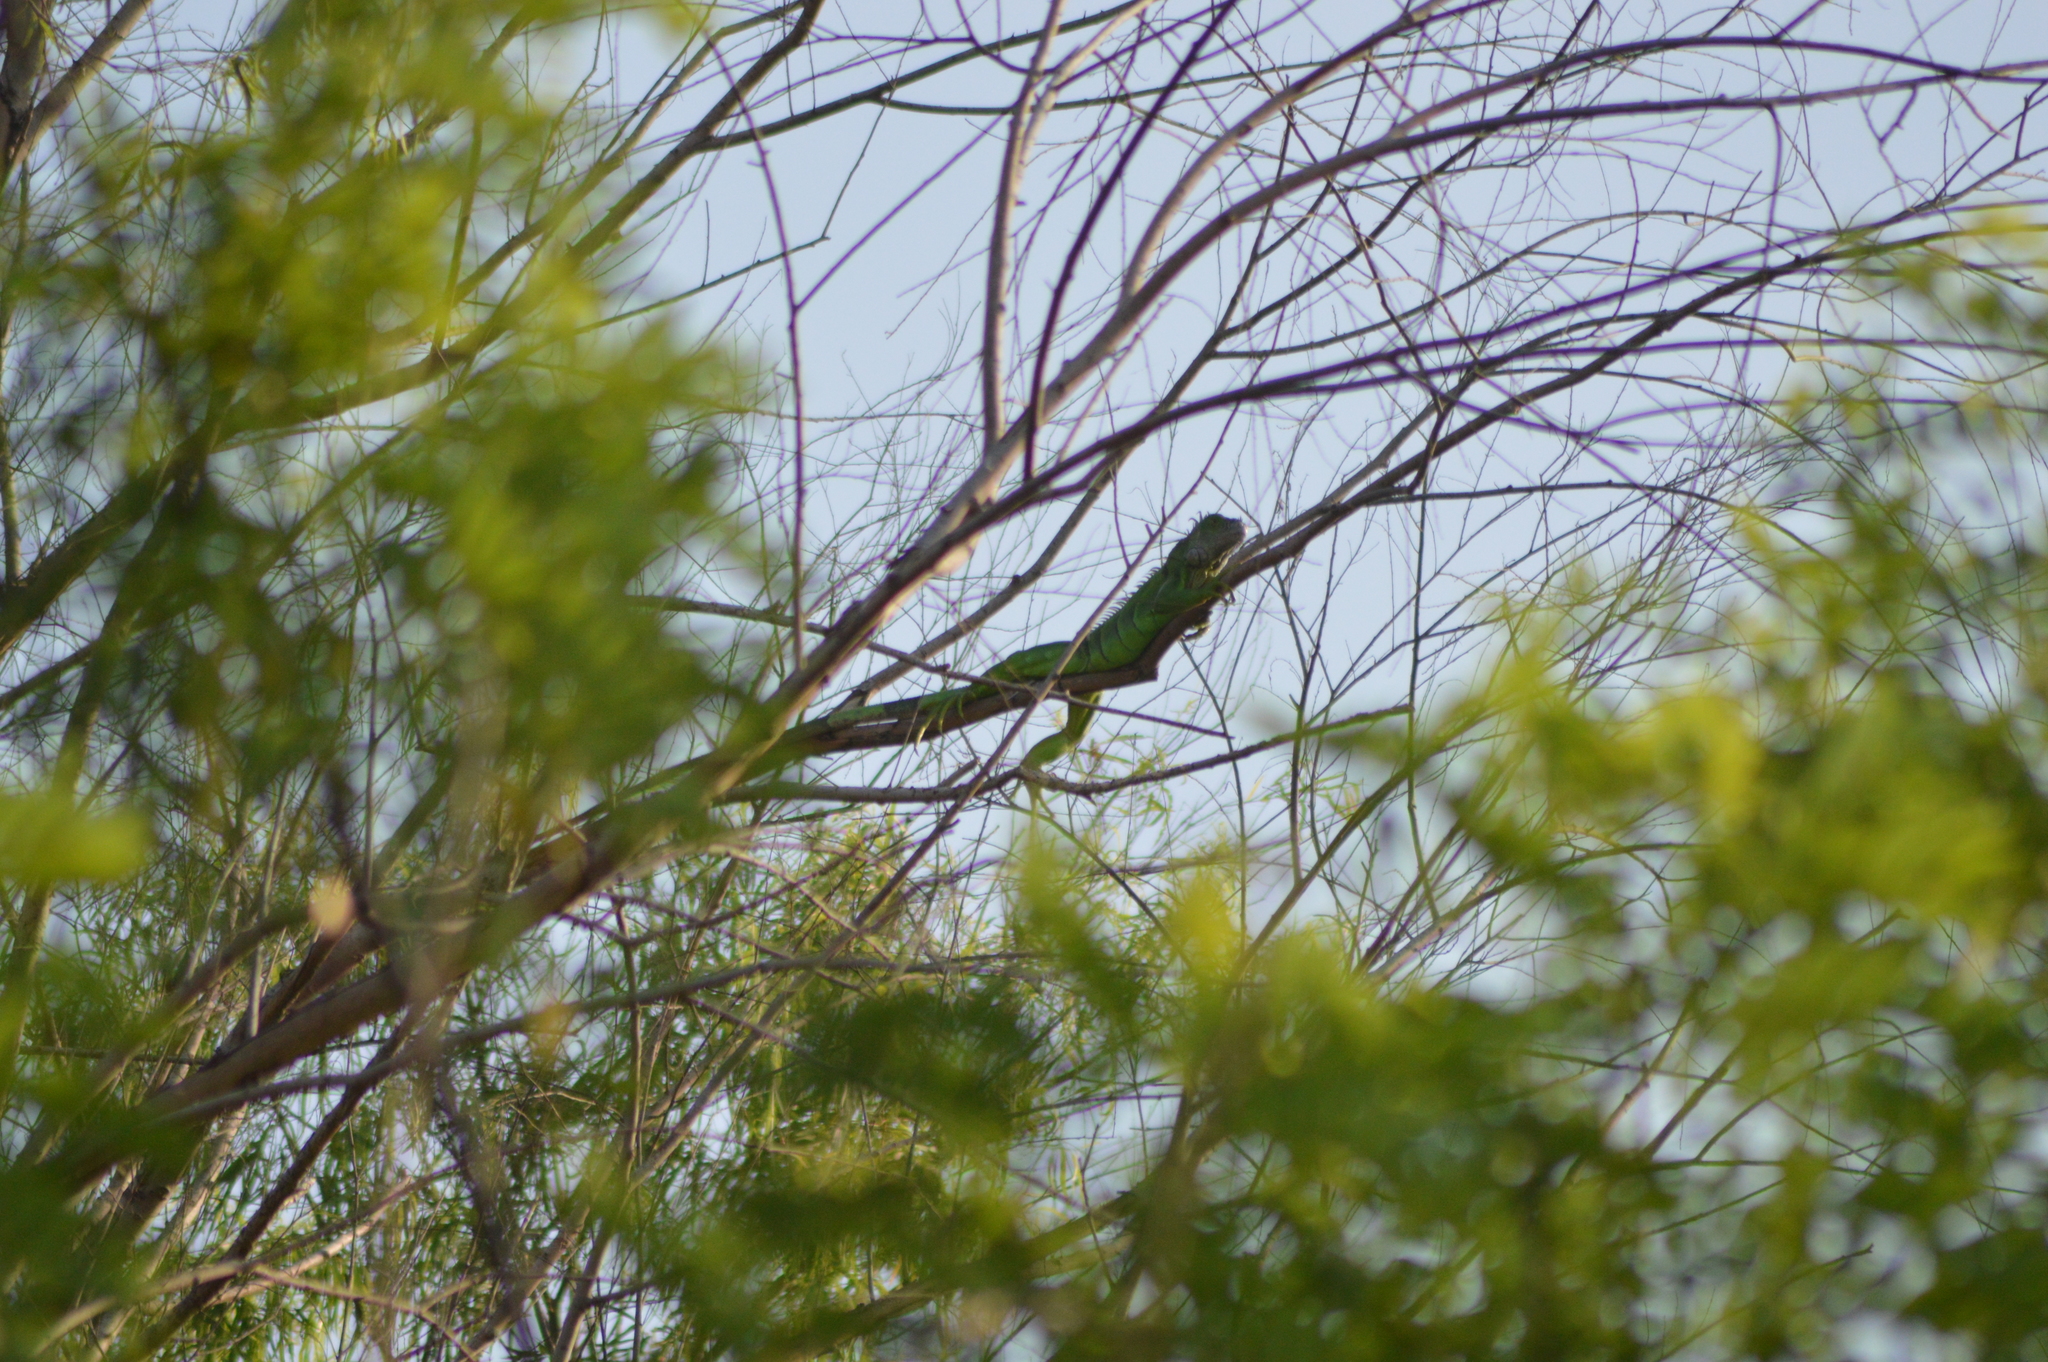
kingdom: Animalia
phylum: Chordata
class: Squamata
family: Iguanidae
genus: Iguana
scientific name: Iguana iguana
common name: Green iguana
